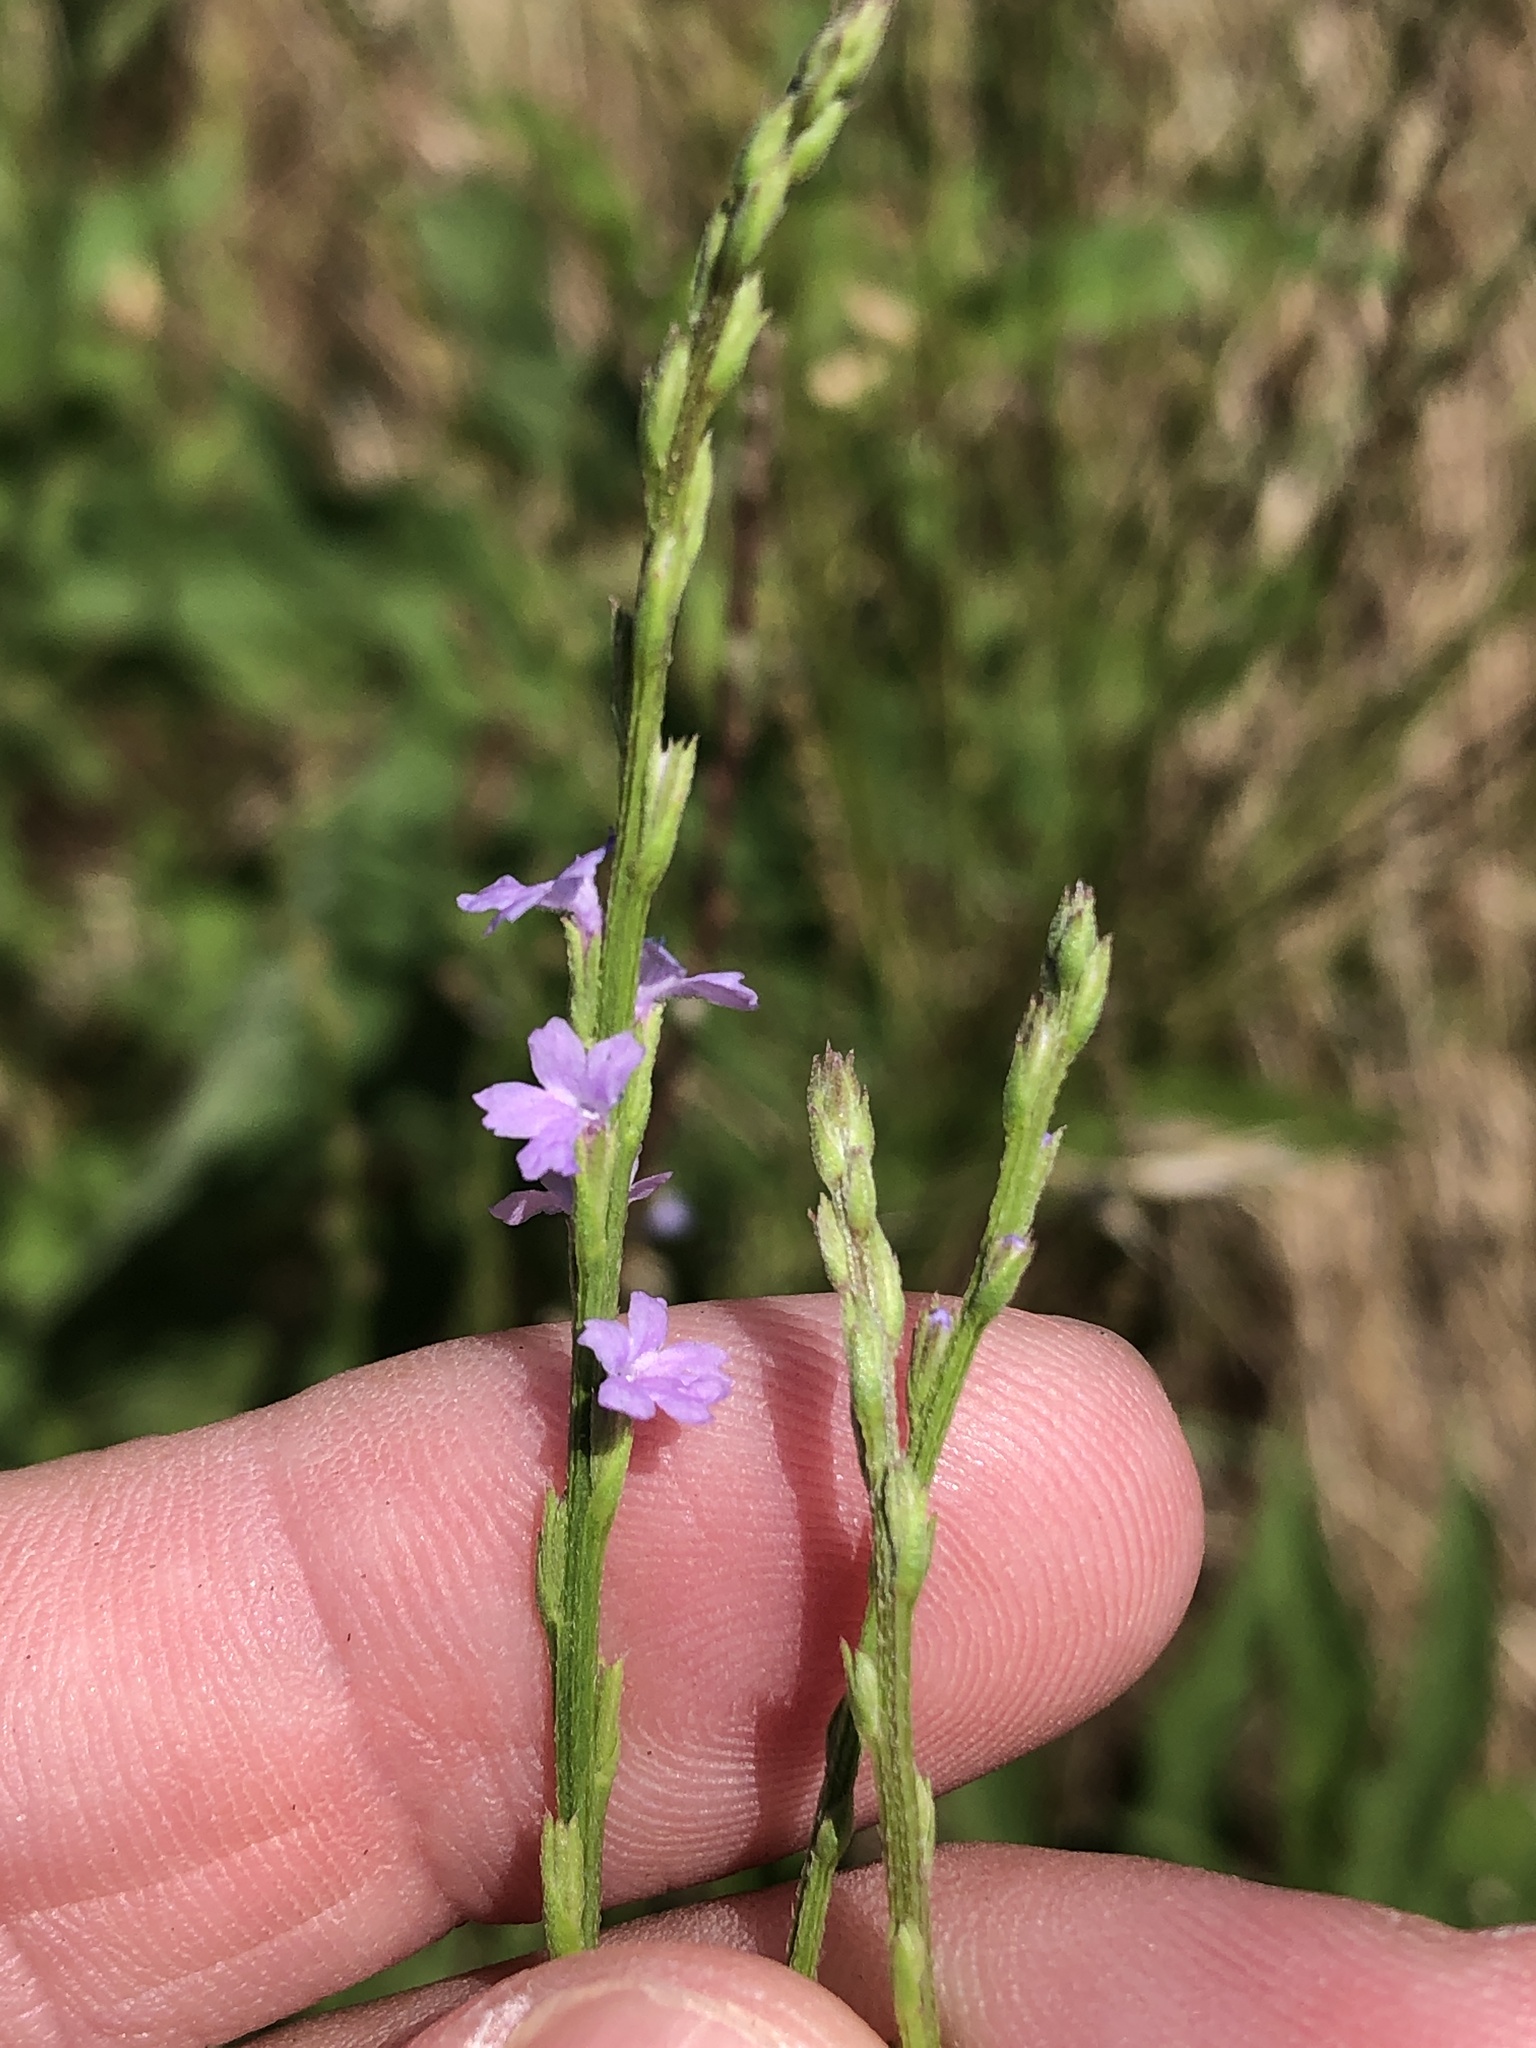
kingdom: Plantae
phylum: Tracheophyta
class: Magnoliopsida
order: Lamiales
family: Verbenaceae
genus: Verbena
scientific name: Verbena halei
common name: Texas vervain
